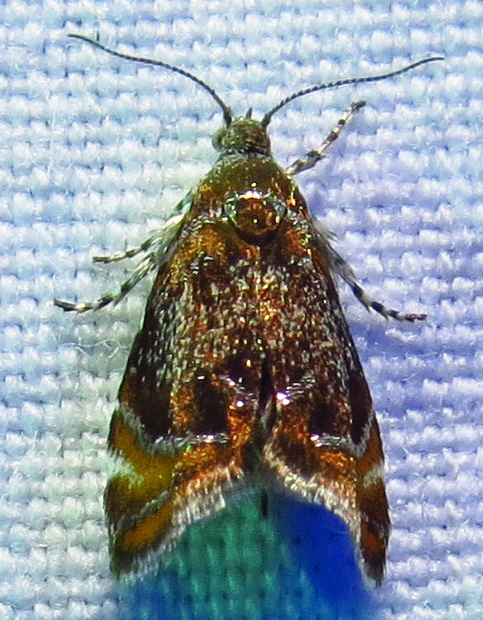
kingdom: Animalia
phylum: Arthropoda
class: Insecta
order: Lepidoptera
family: Choreutidae
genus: Prochoreutis
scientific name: Prochoreutis inflatella
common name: Skullcap skeletonizer moth
